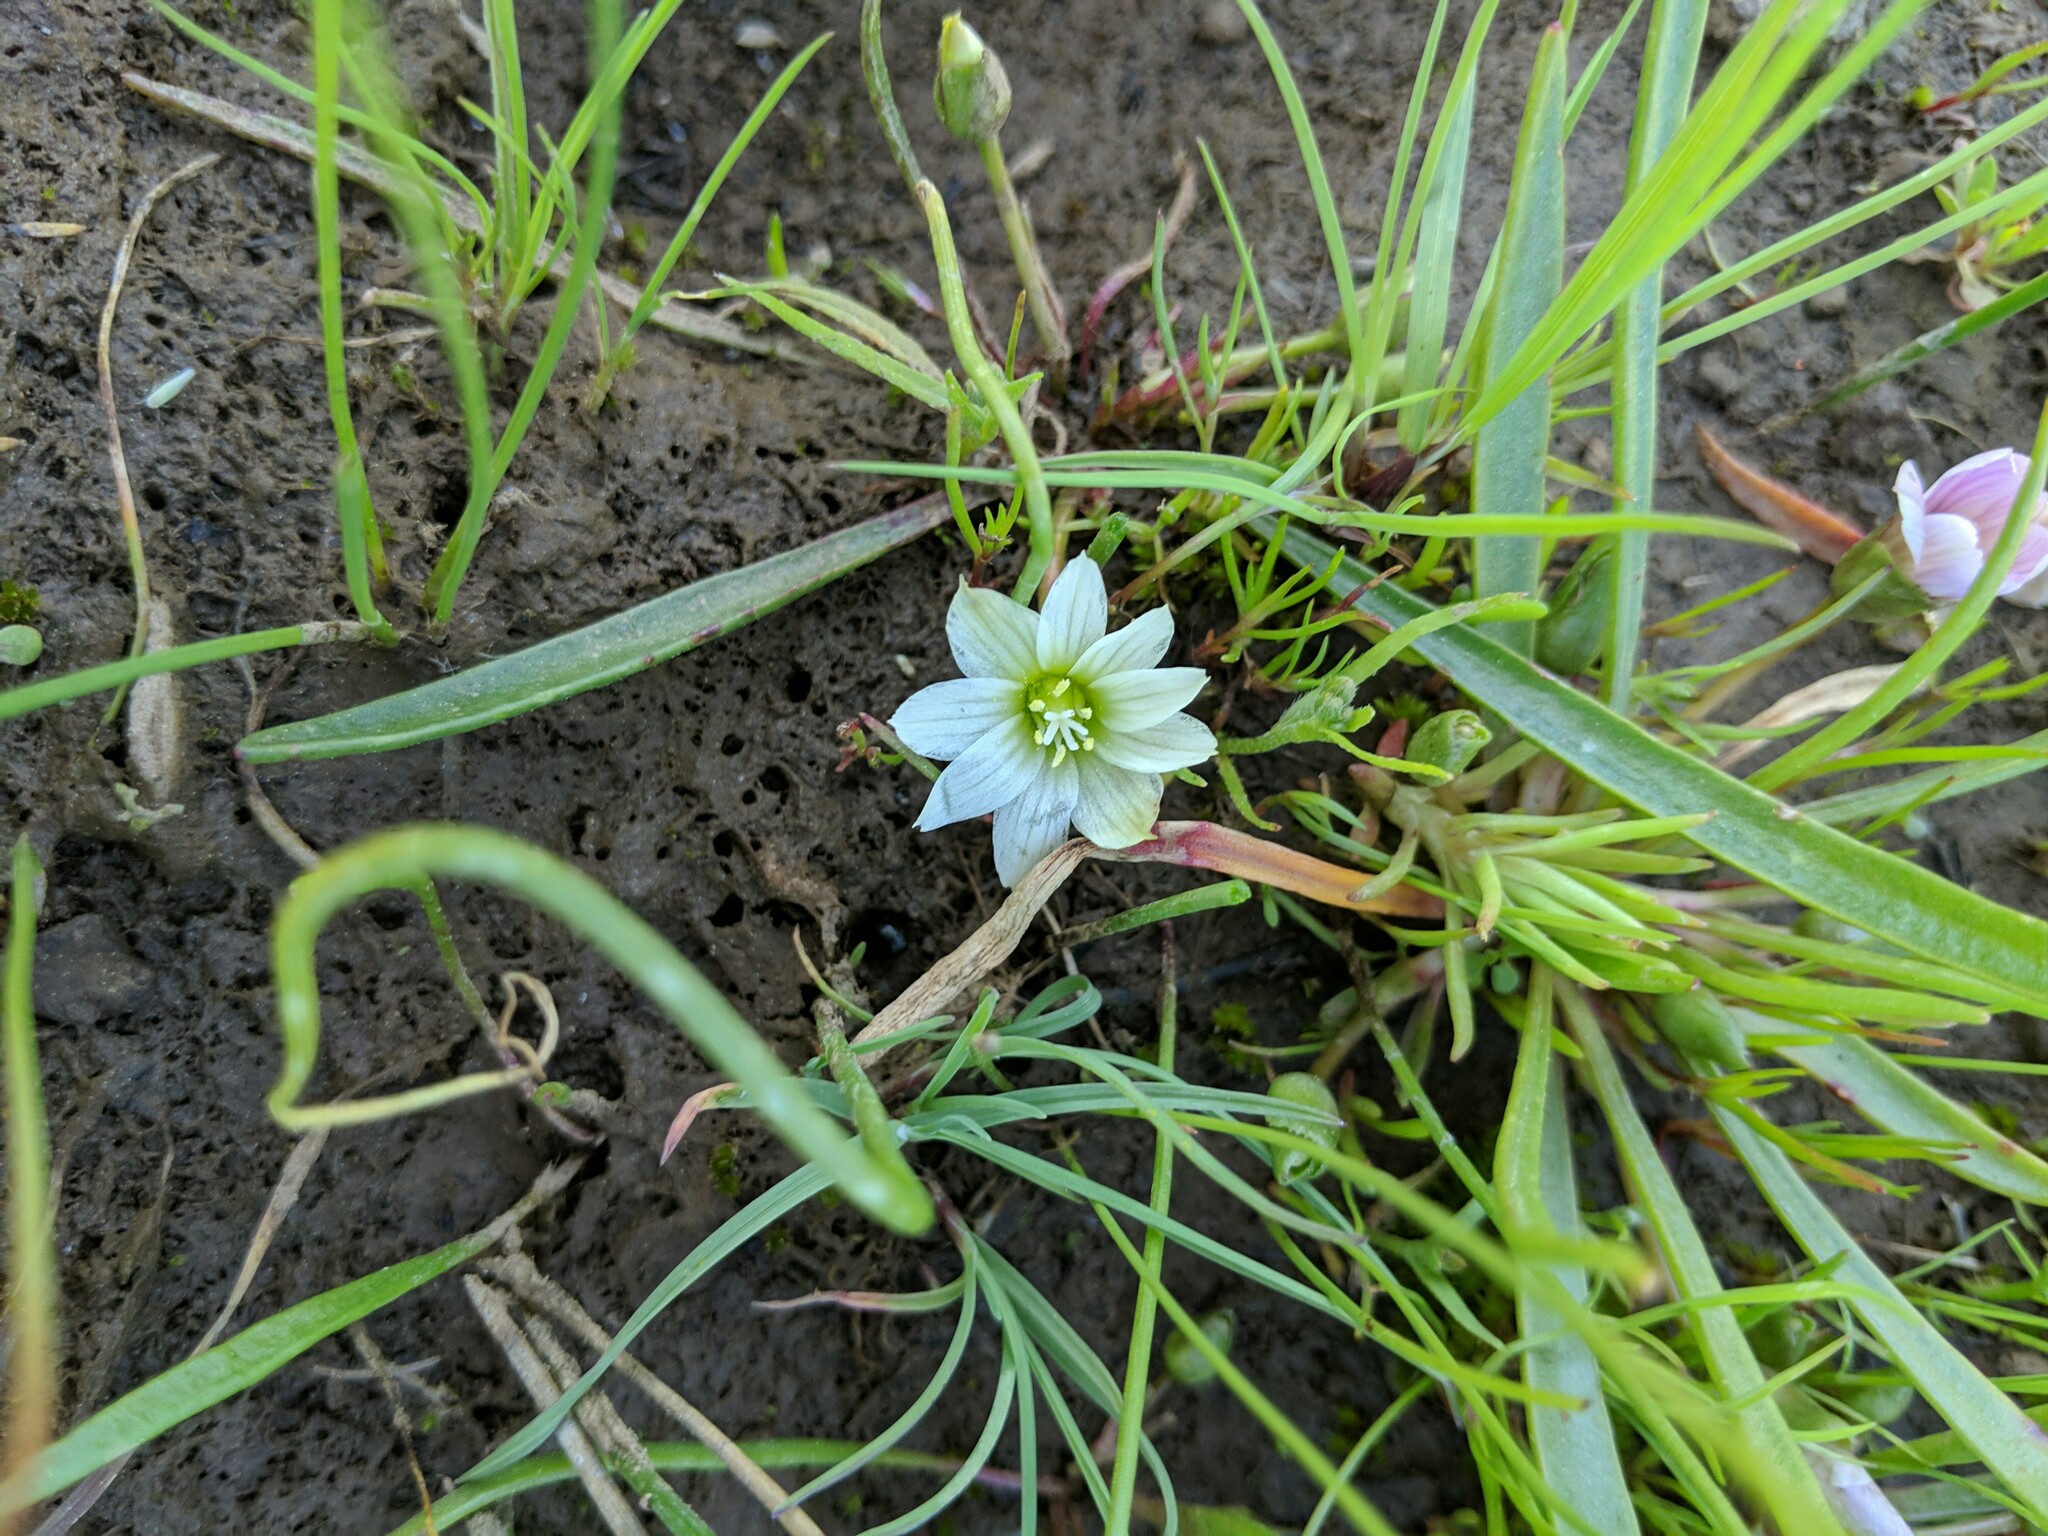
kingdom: Plantae
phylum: Tracheophyta
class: Magnoliopsida
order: Caryophyllales
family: Montiaceae
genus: Lewisia
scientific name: Lewisia pygmaea
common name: Alpine bitterroot
